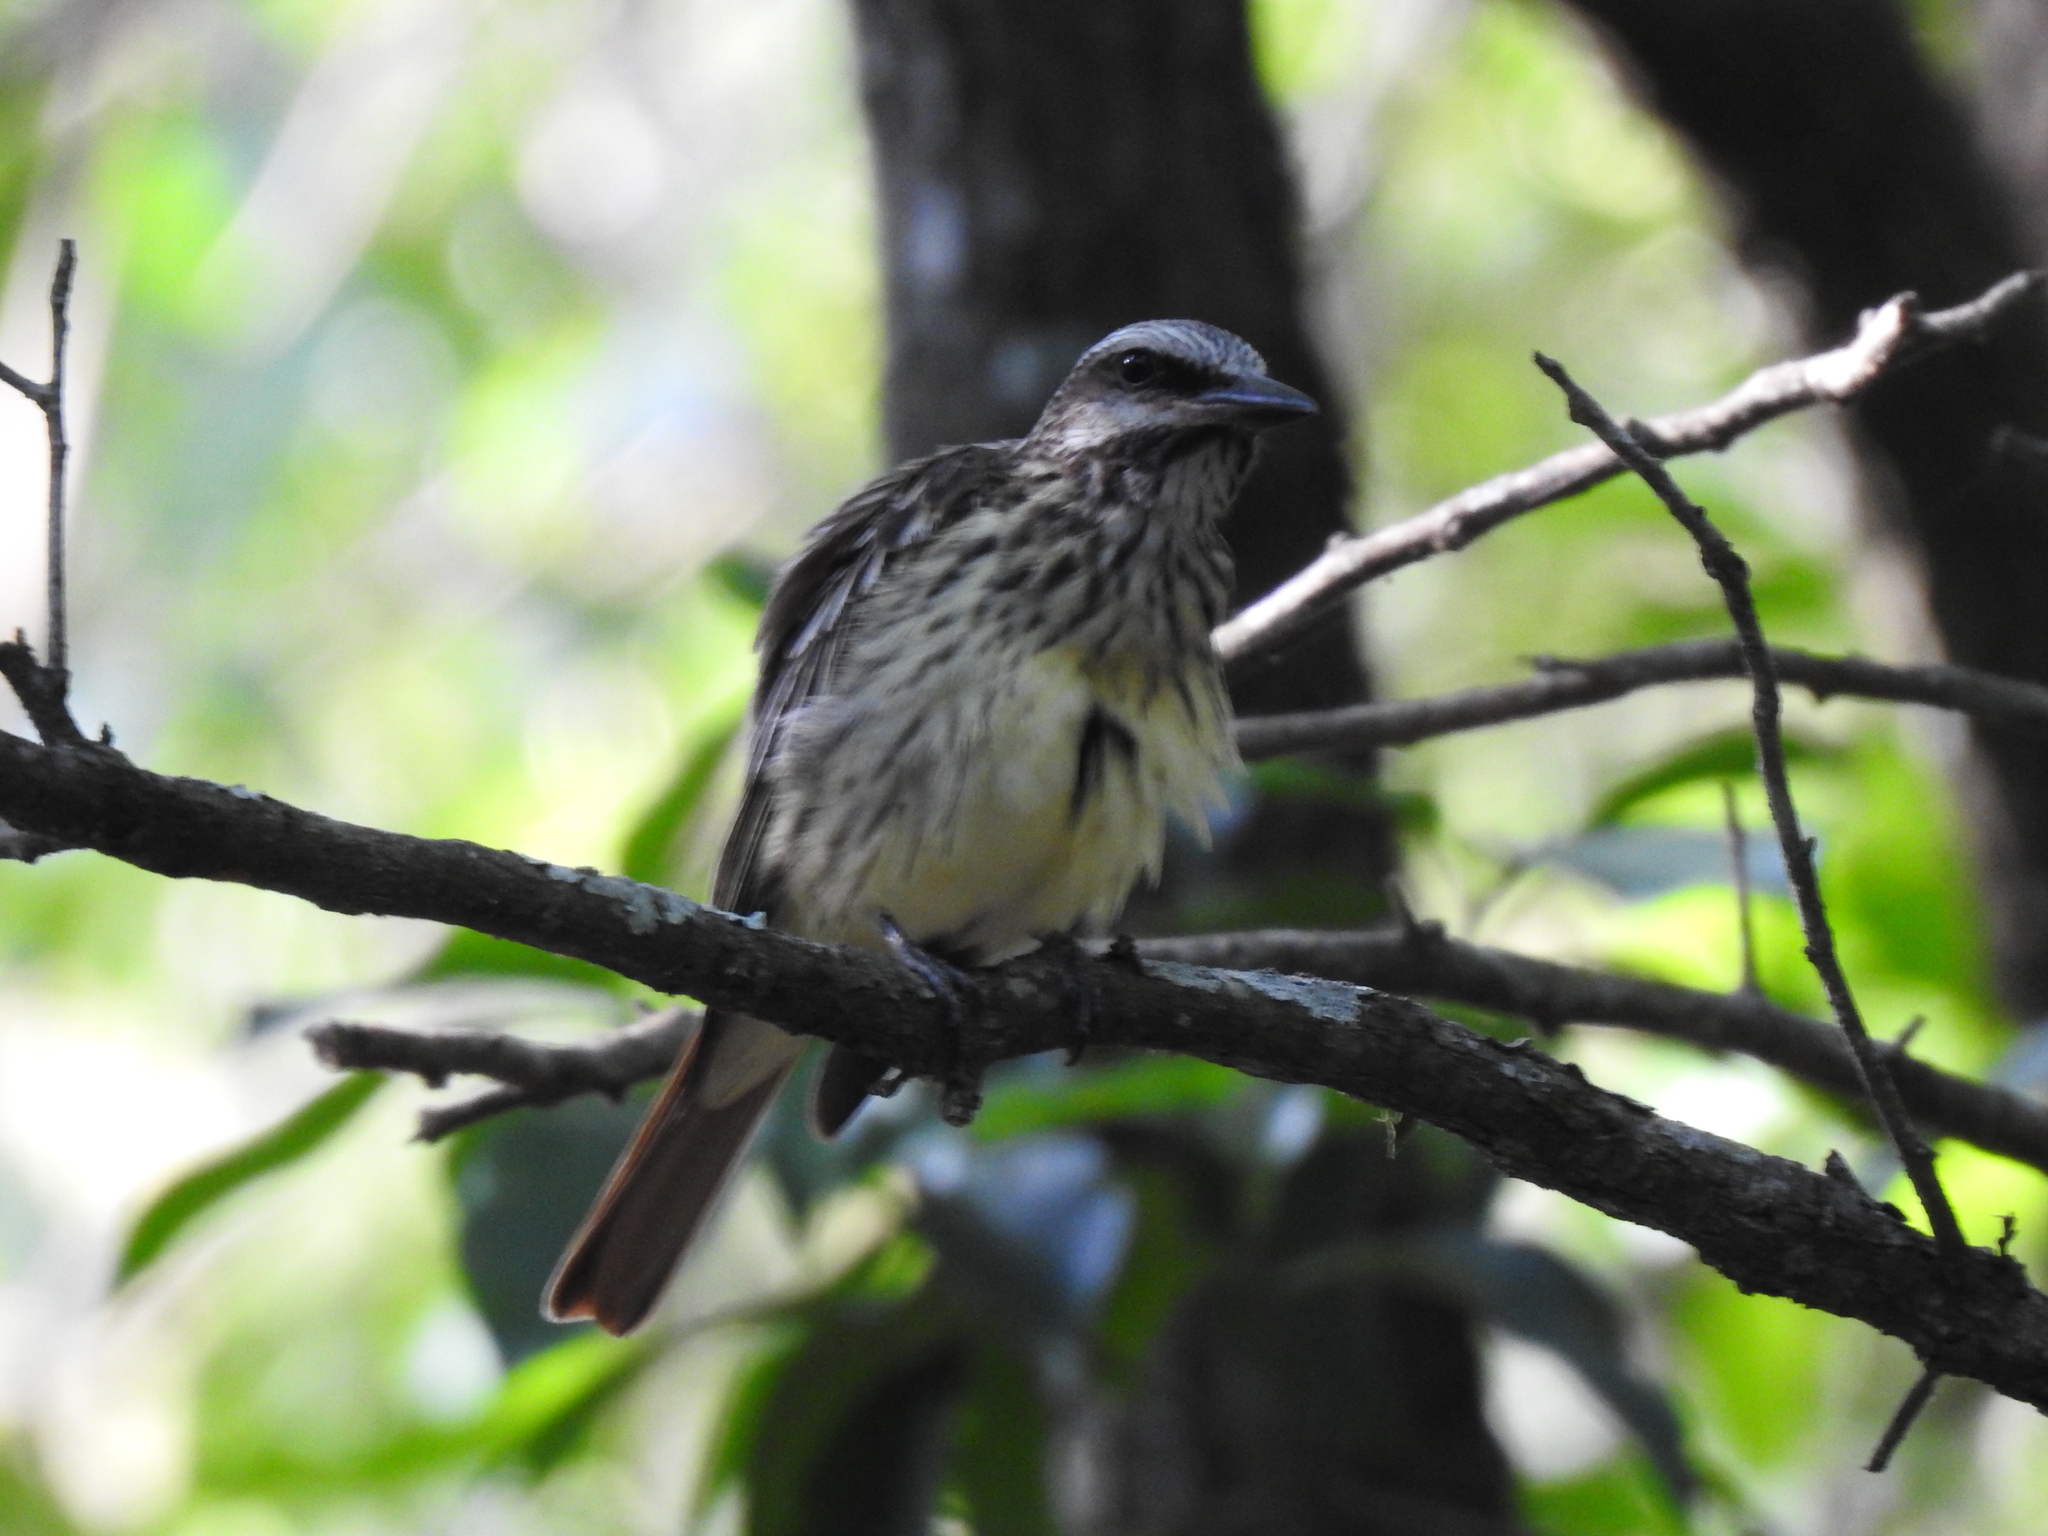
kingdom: Animalia
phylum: Chordata
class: Aves
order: Passeriformes
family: Tyrannidae
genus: Myiodynastes
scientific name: Myiodynastes luteiventris
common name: Sulphur-bellied flycatcher
